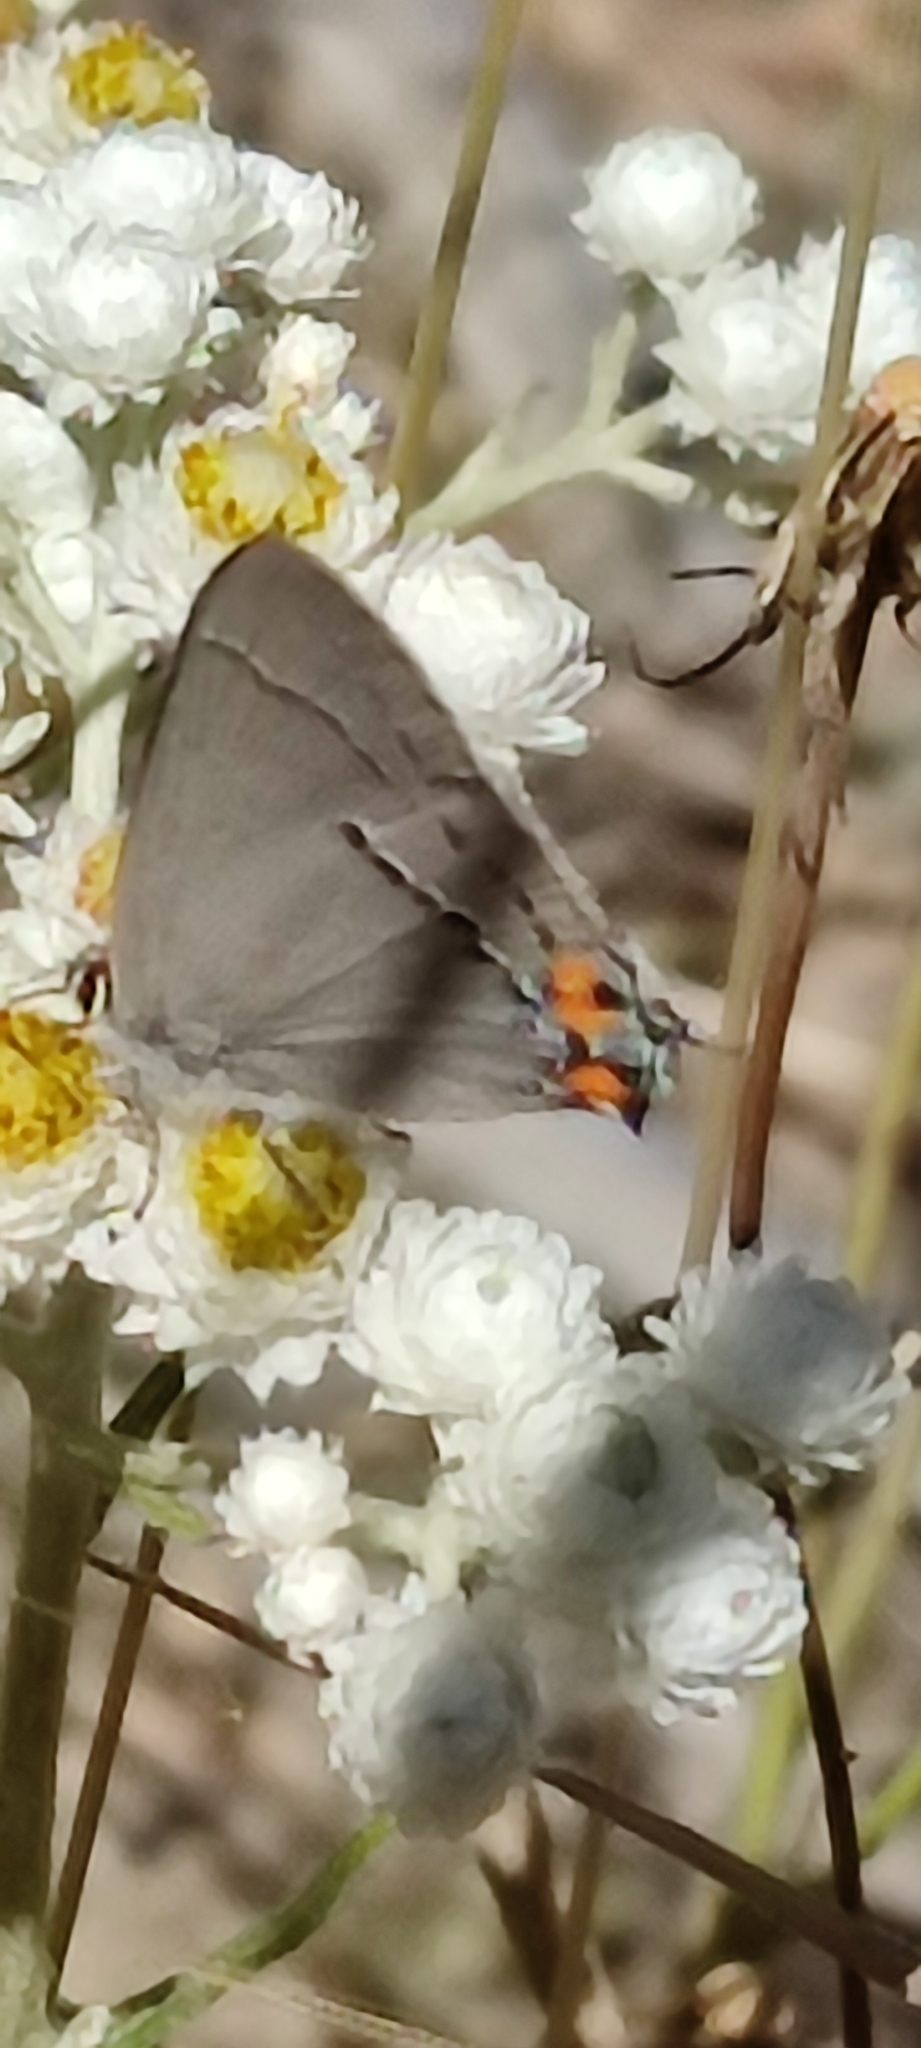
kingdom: Animalia
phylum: Arthropoda
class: Insecta
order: Lepidoptera
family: Lycaenidae
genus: Strymon
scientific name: Strymon melinus
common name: Gray hairstreak
